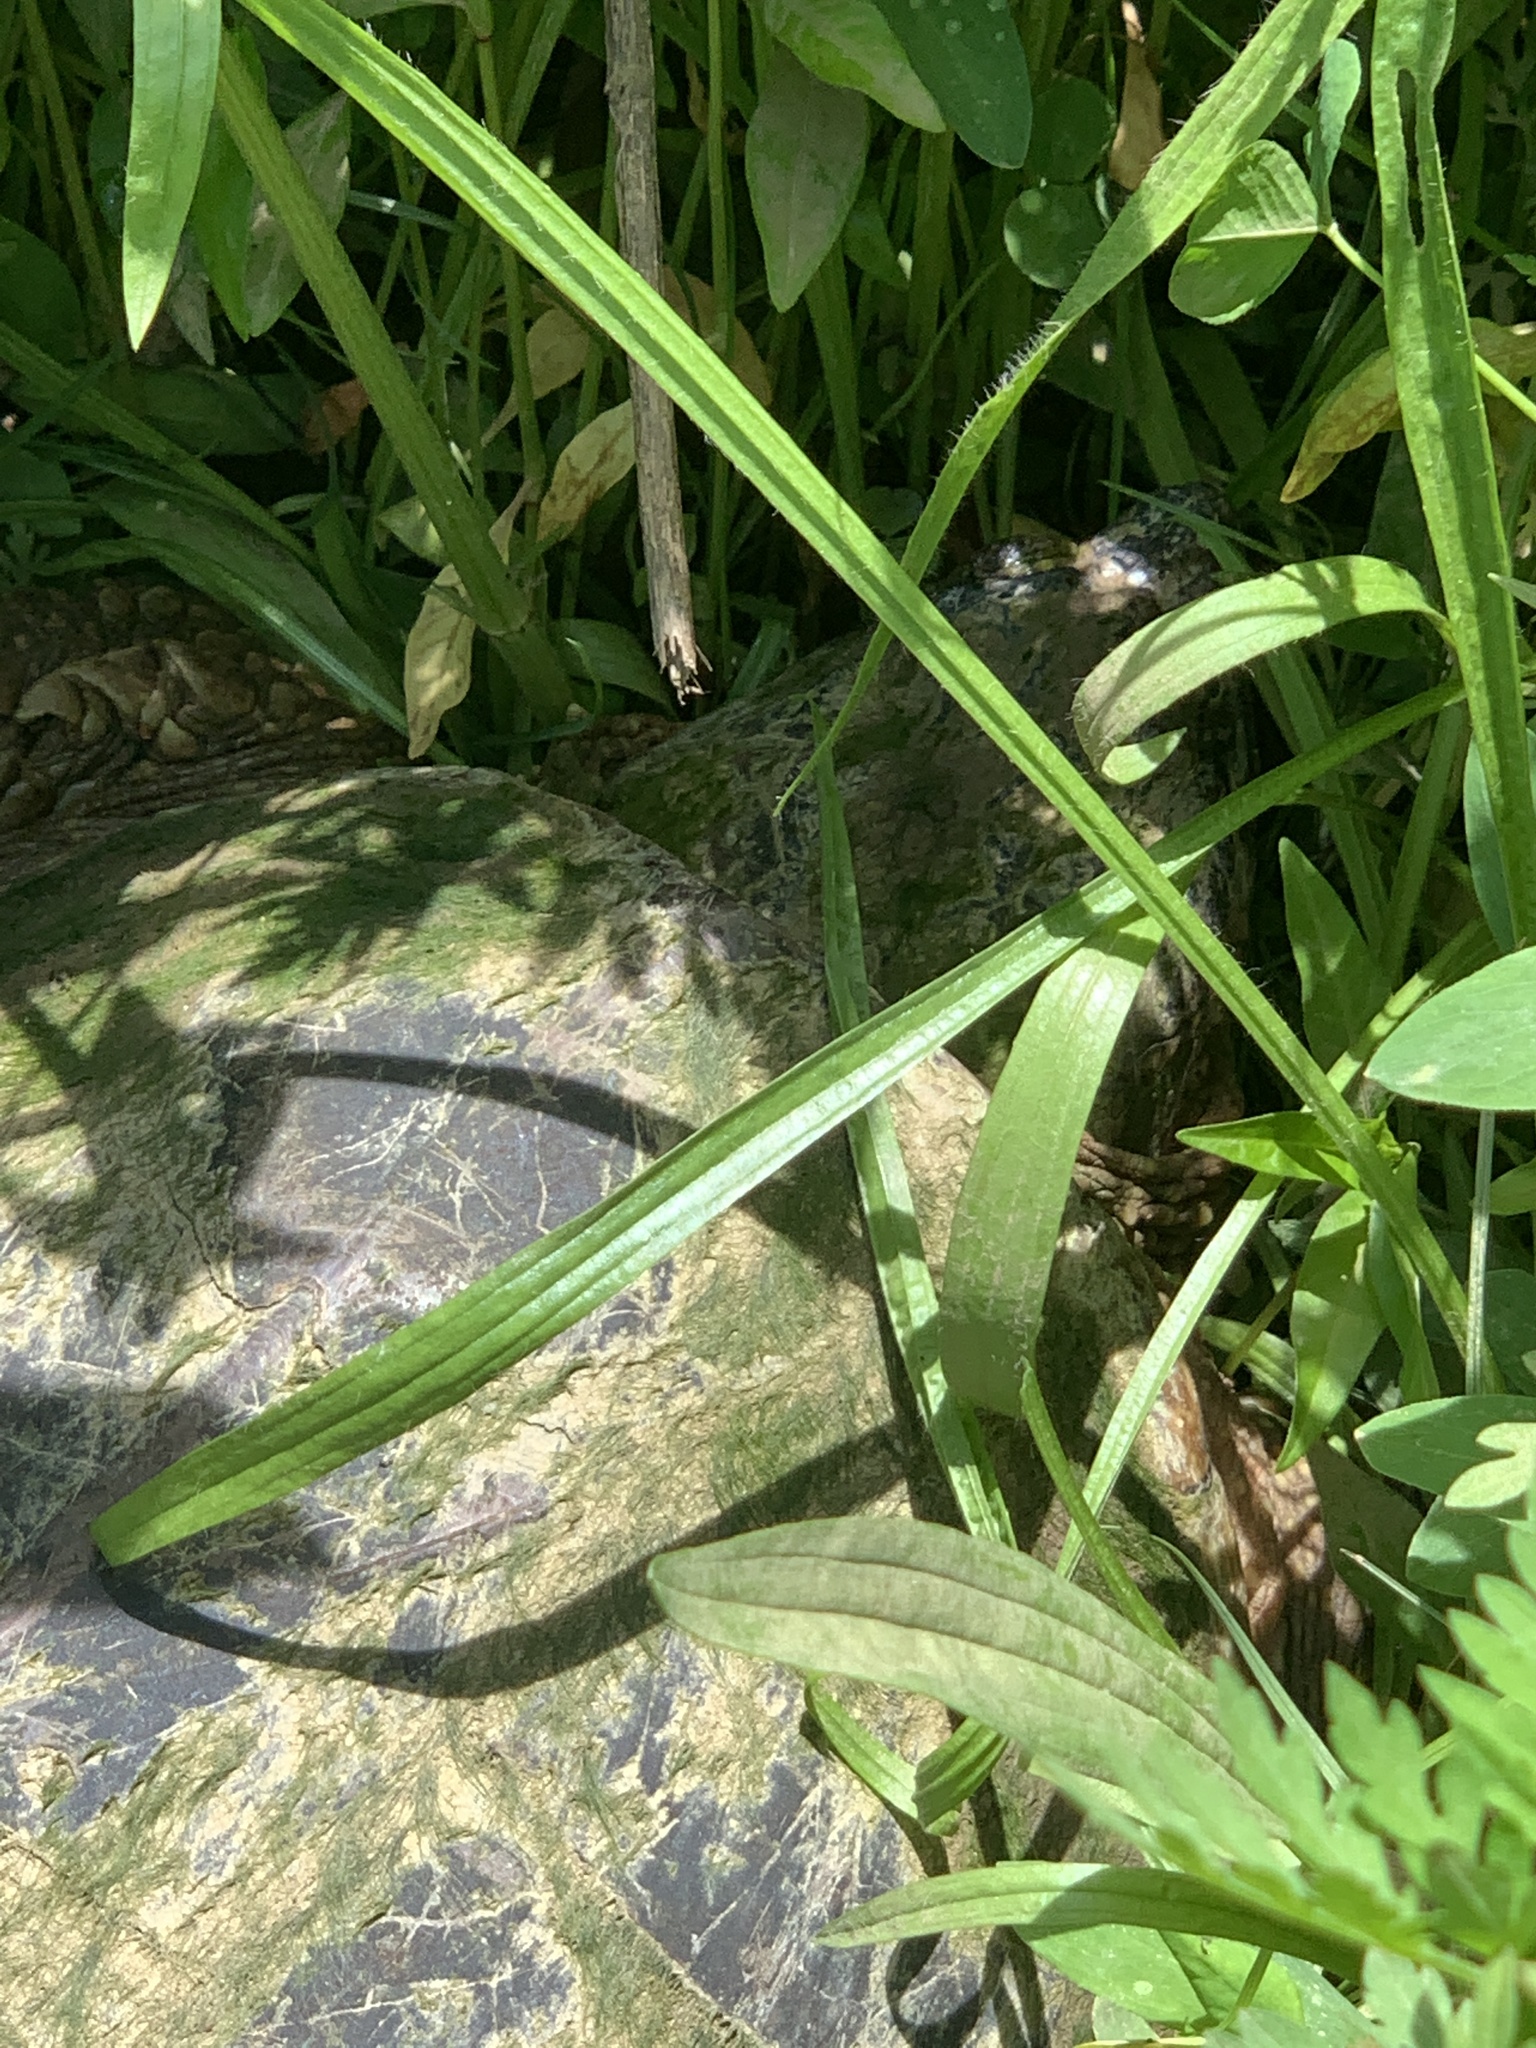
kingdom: Animalia
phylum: Chordata
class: Testudines
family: Chelydridae
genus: Chelydra
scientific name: Chelydra serpentina
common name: Common snapping turtle
